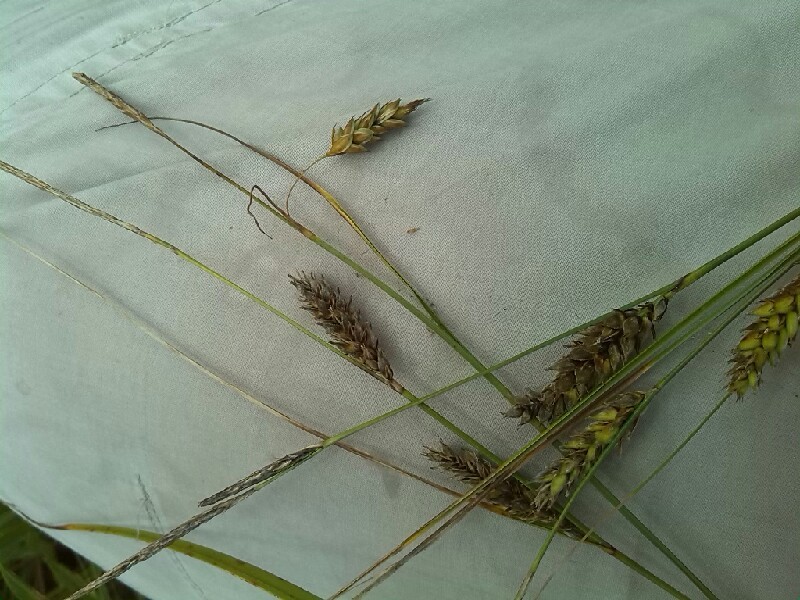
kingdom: Plantae
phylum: Tracheophyta
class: Liliopsida
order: Poales
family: Cyperaceae
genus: Carex
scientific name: Carex lasiocarpa
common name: Slender sedge
